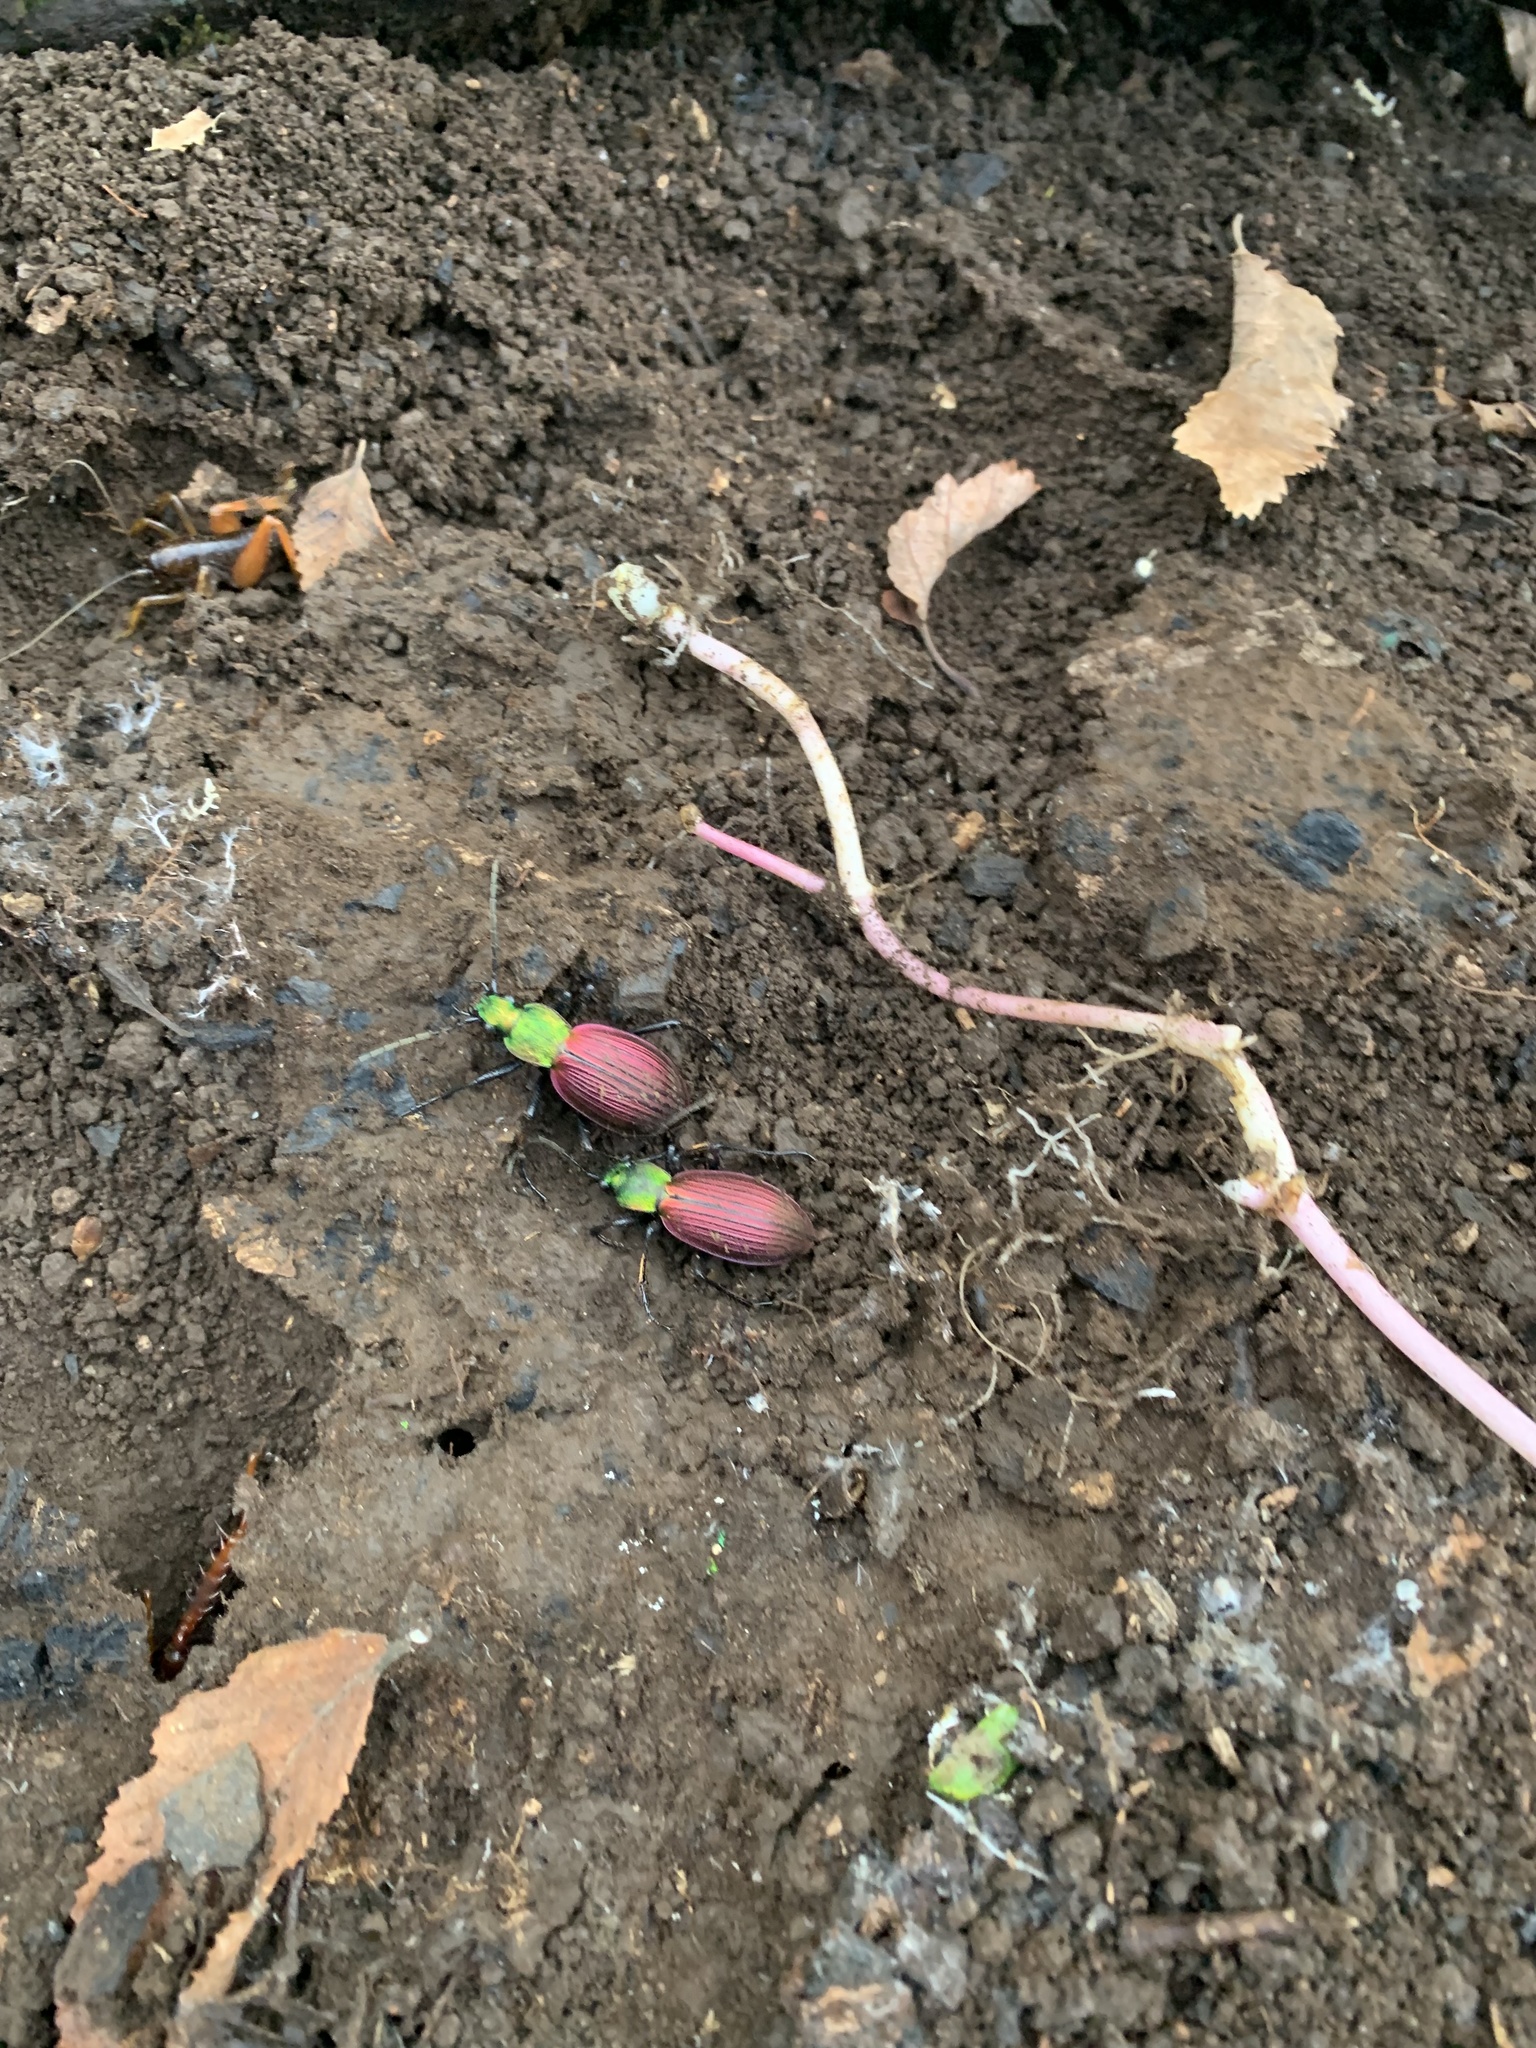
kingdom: Animalia
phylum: Arthropoda
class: Insecta
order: Coleoptera
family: Carabidae
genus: Ceroglossus
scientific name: Ceroglossus chilensis
